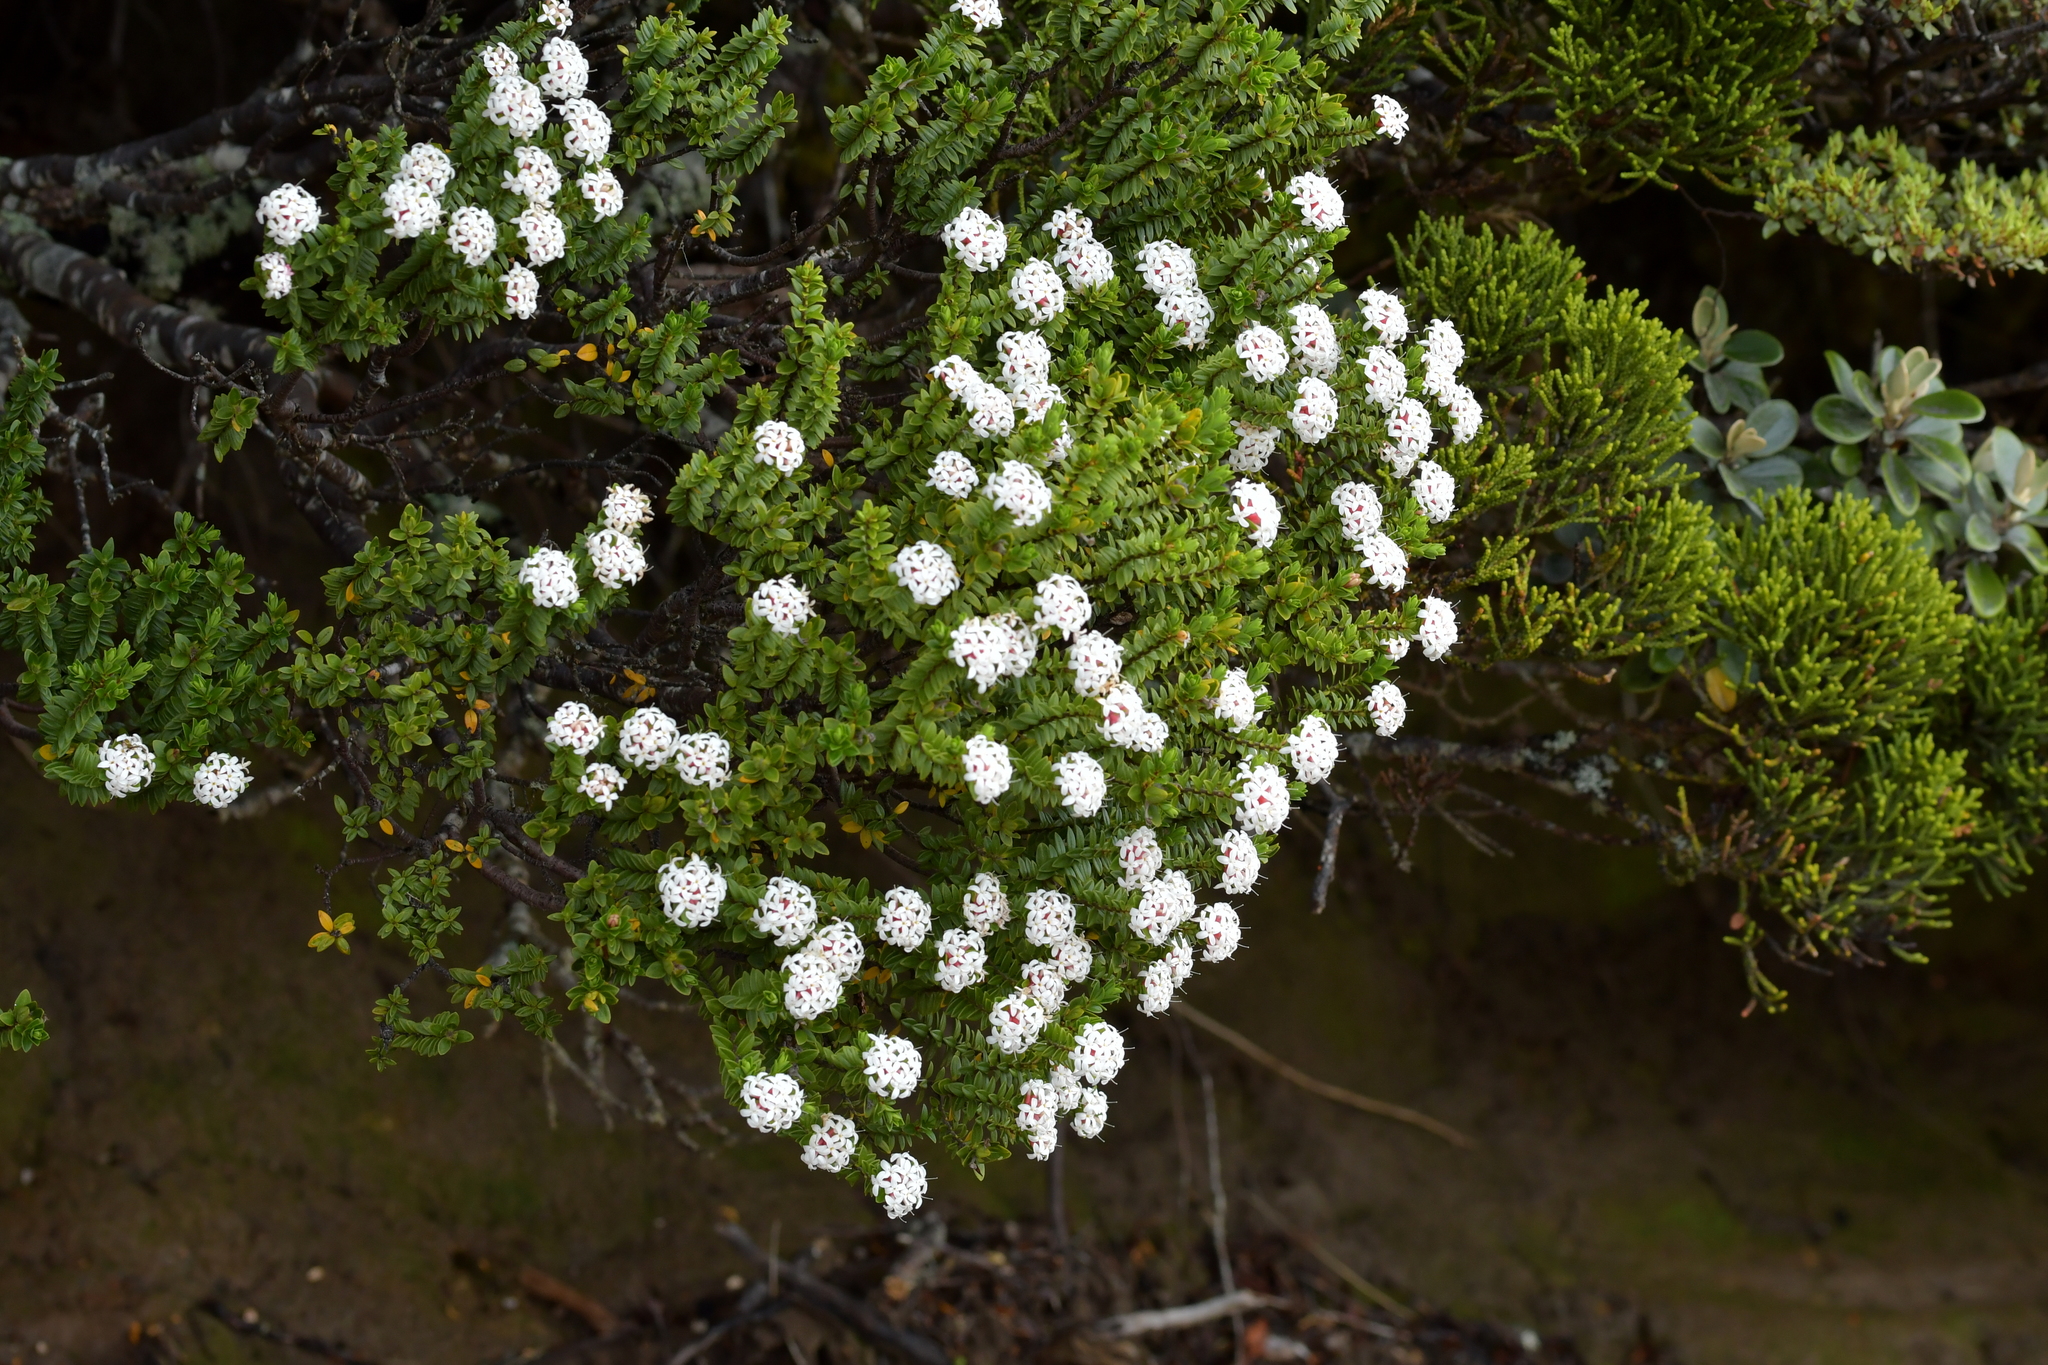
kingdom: Plantae
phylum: Tracheophyta
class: Magnoliopsida
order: Malvales
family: Thymelaeaceae
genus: Pimelea
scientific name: Pimelea buxifolia
